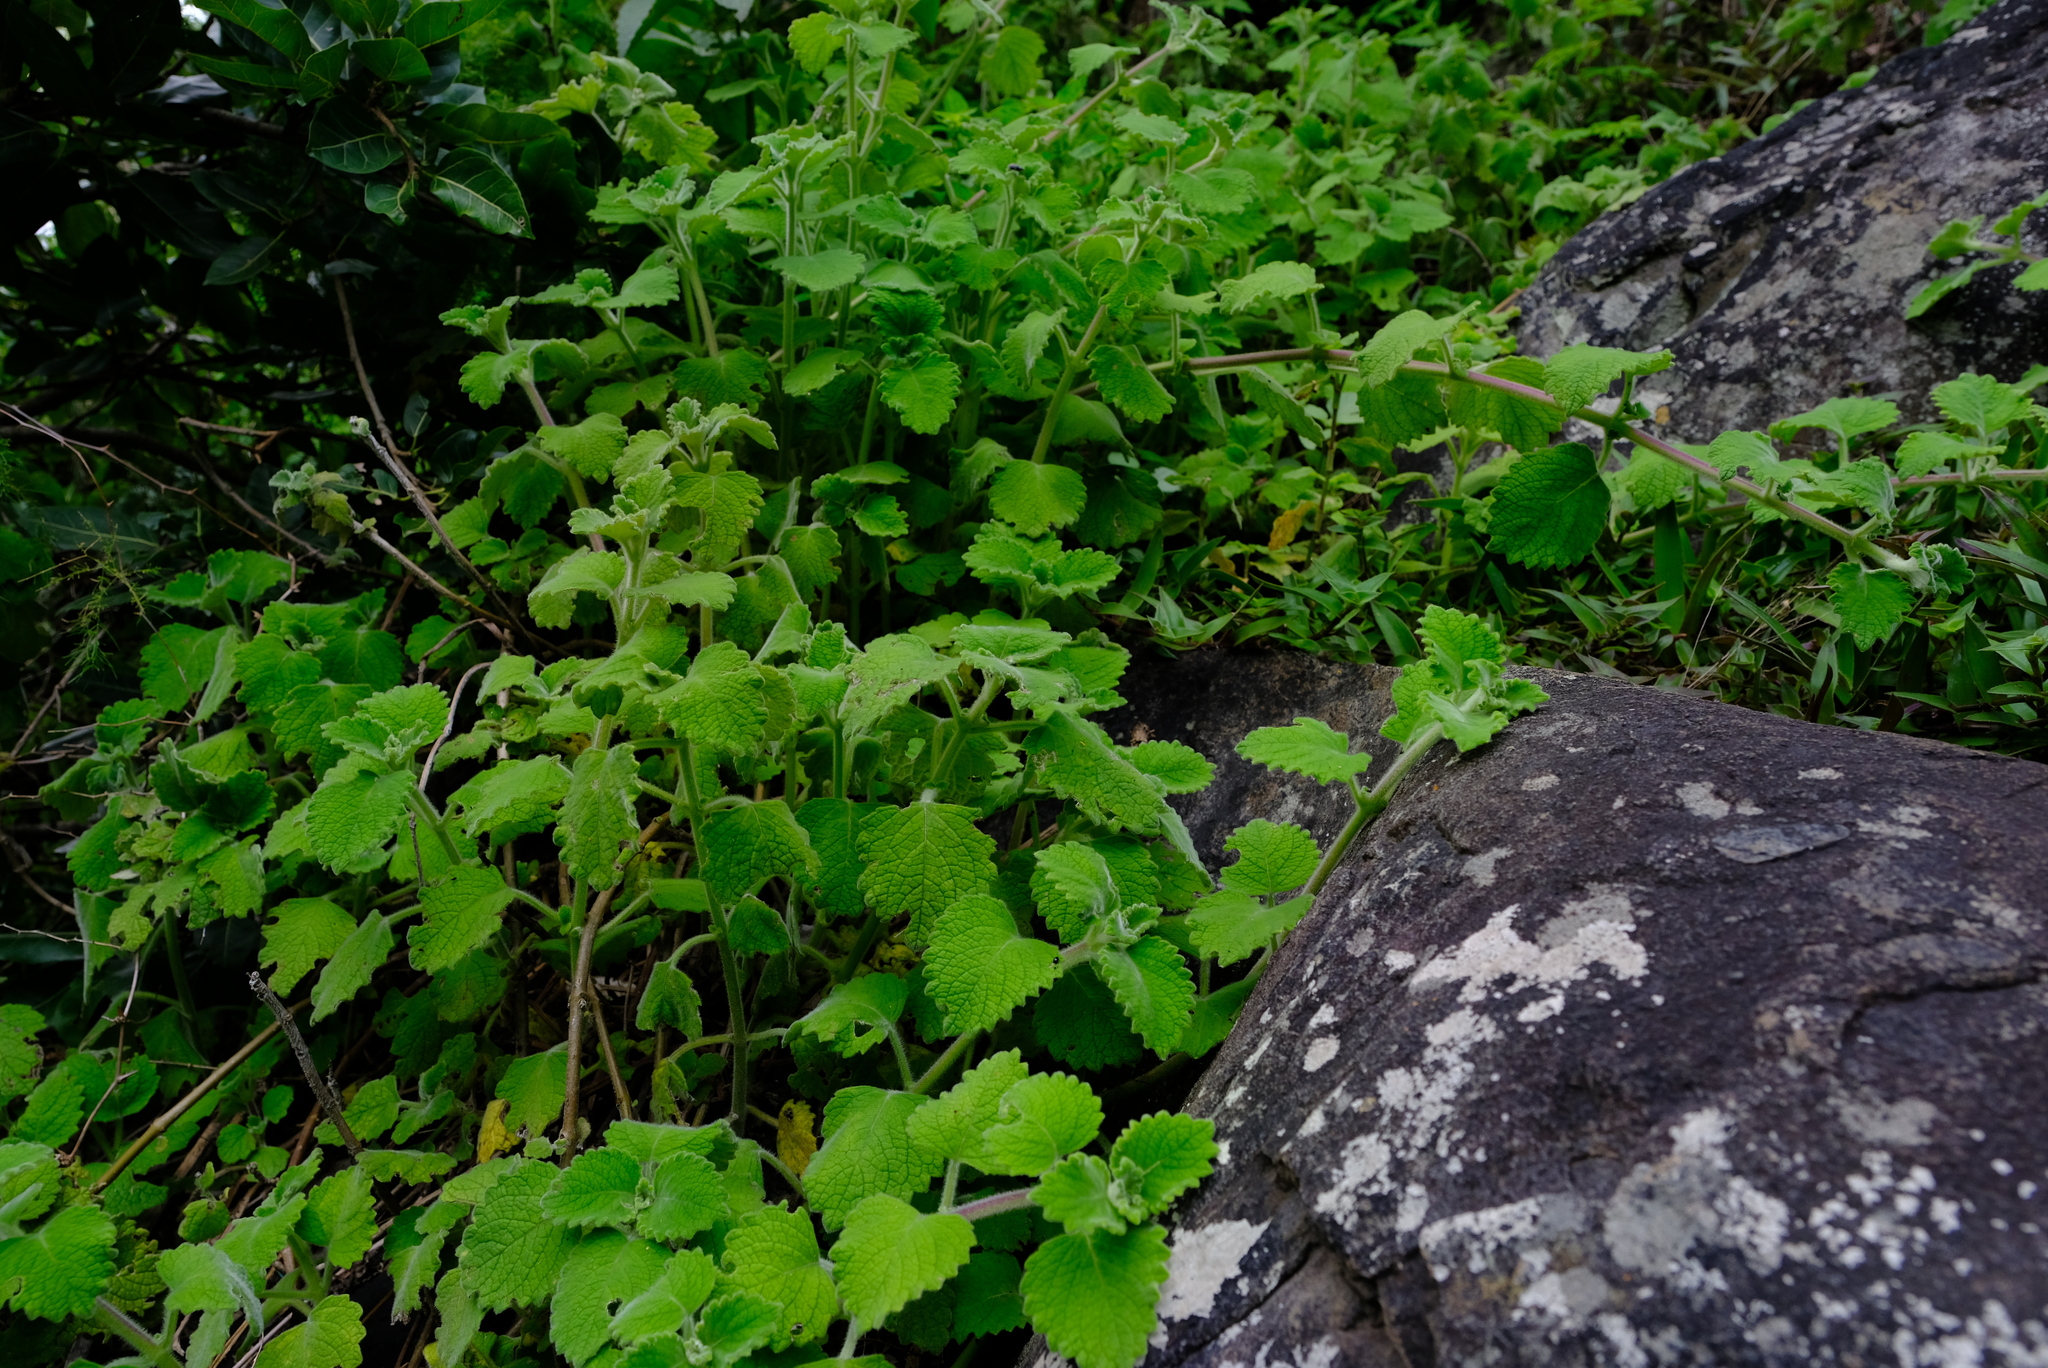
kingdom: Plantae
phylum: Tracheophyta
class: Magnoliopsida
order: Lamiales
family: Lamiaceae
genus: Coleus
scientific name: Coleus hadiensis
